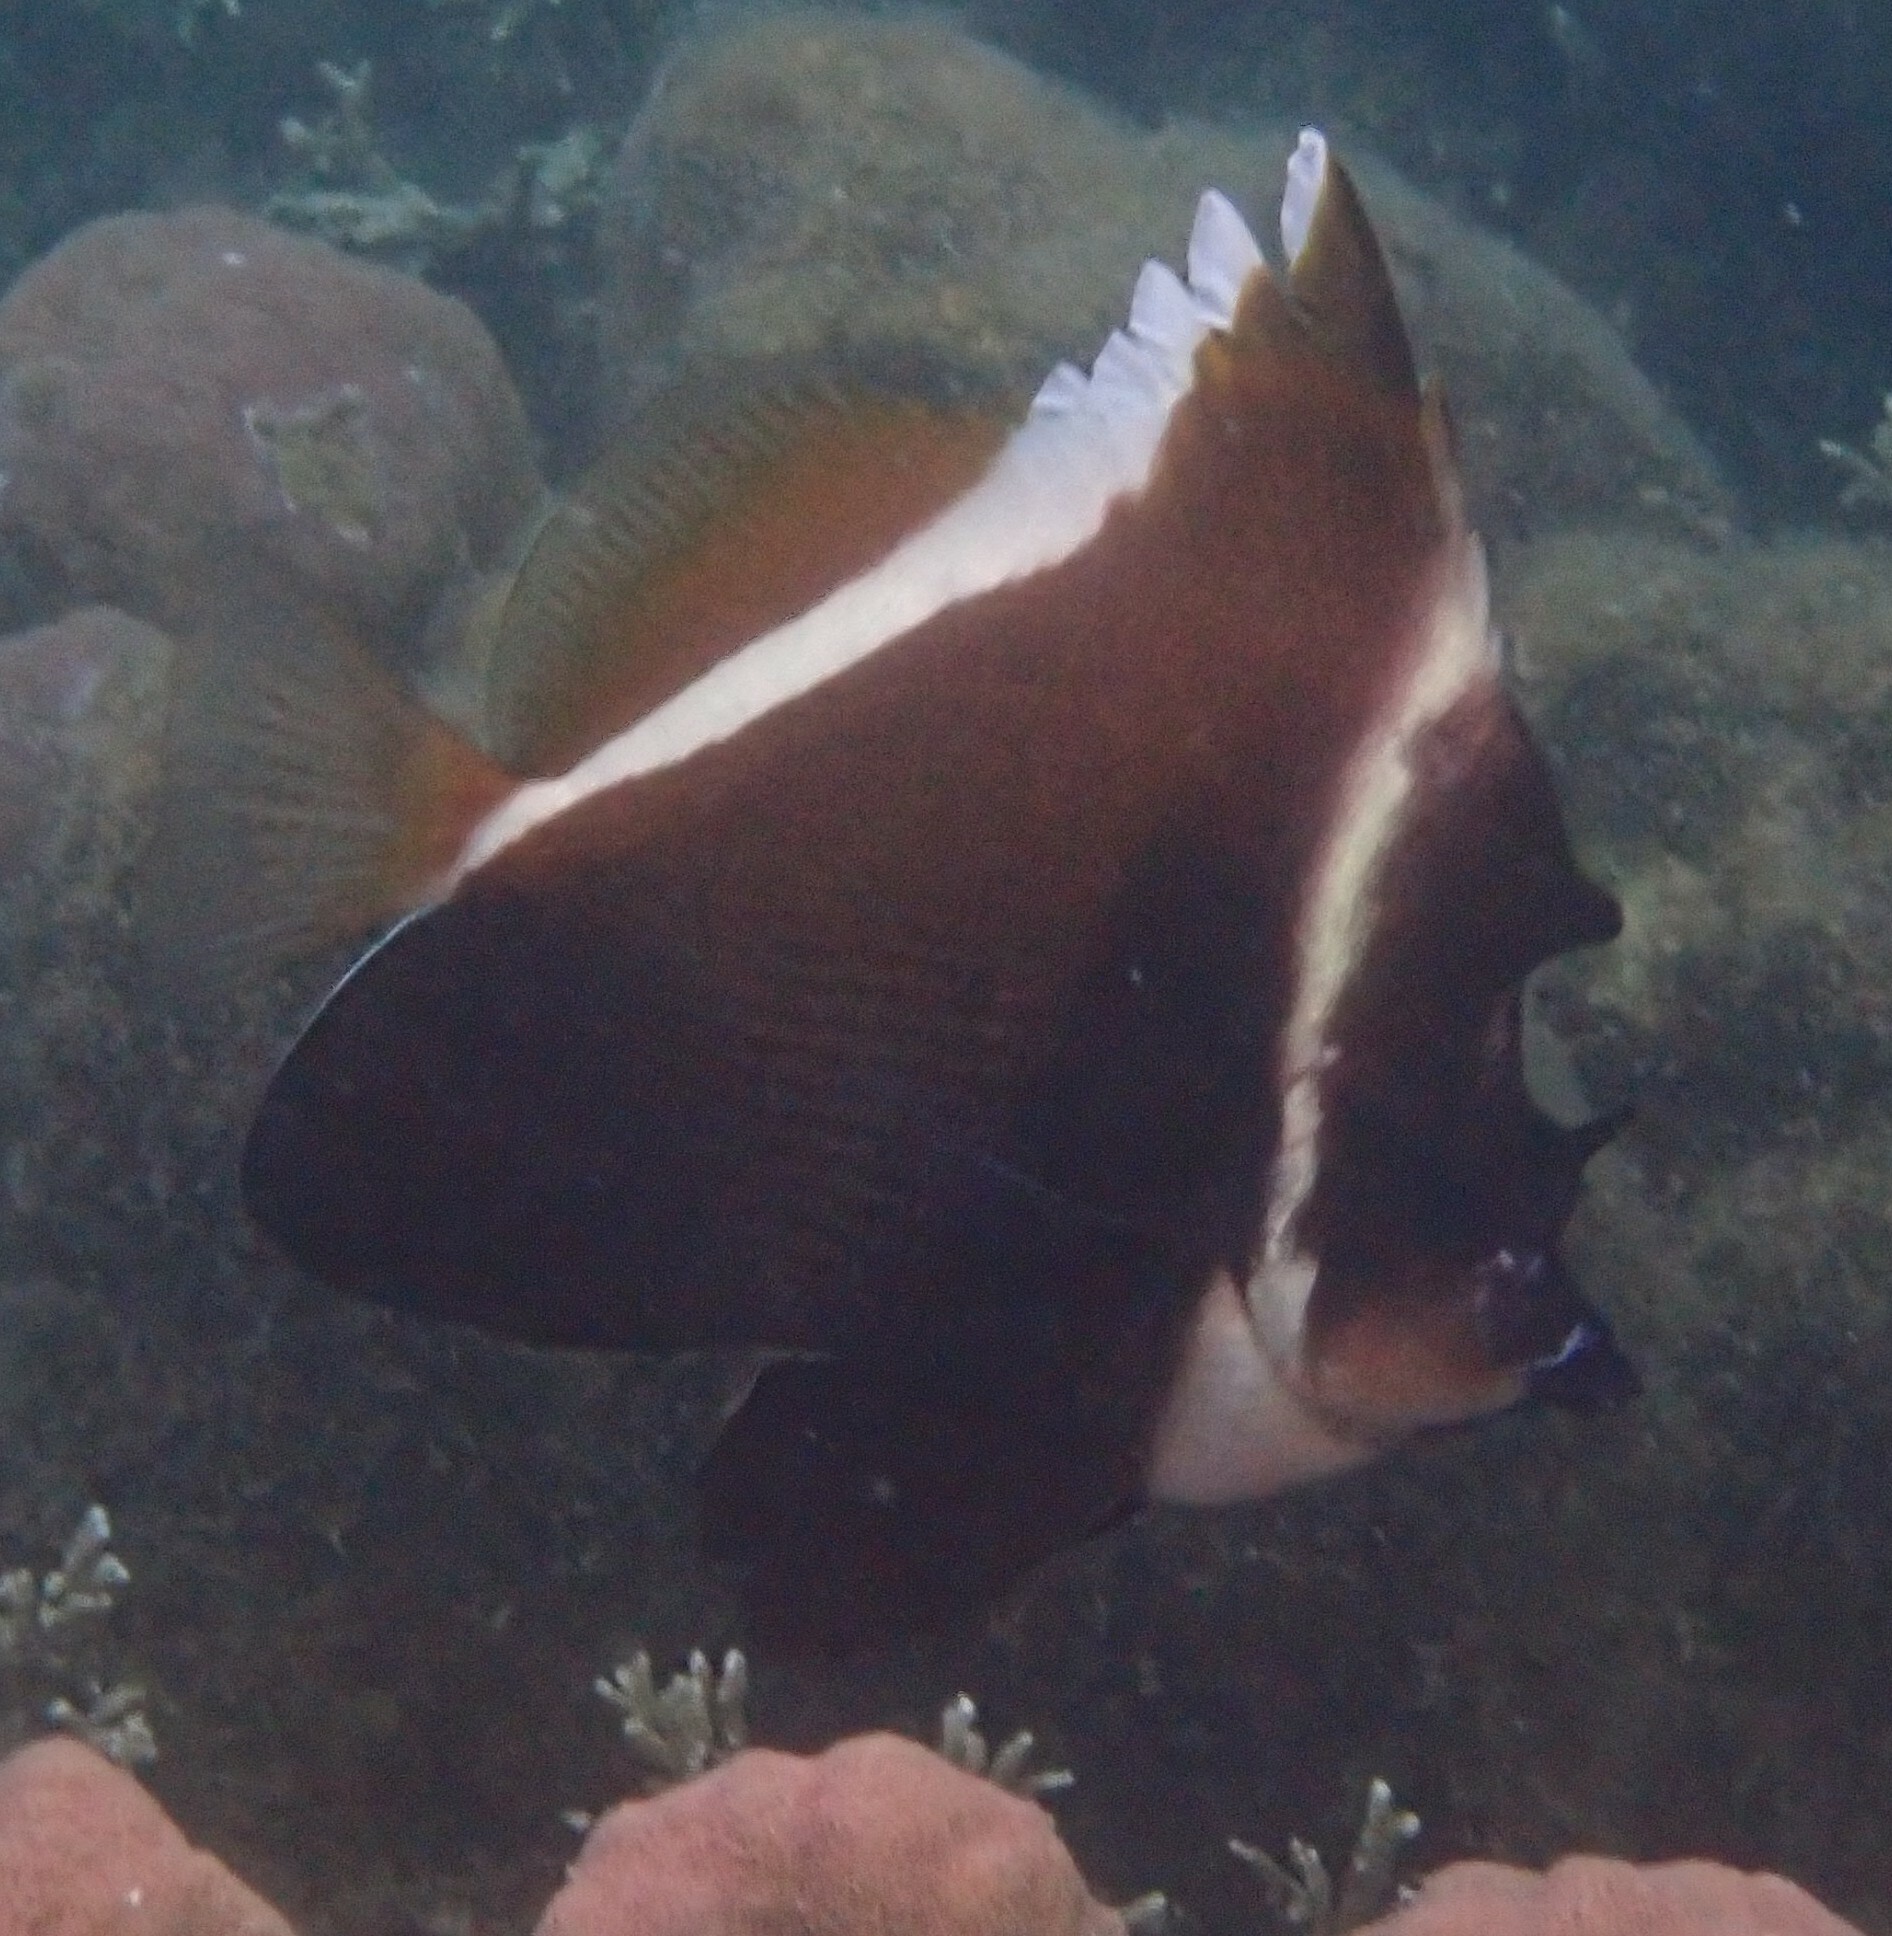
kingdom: Animalia
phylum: Chordata
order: Perciformes
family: Chaetodontidae
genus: Heniochus
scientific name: Heniochus varius
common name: Horned bannerfish
